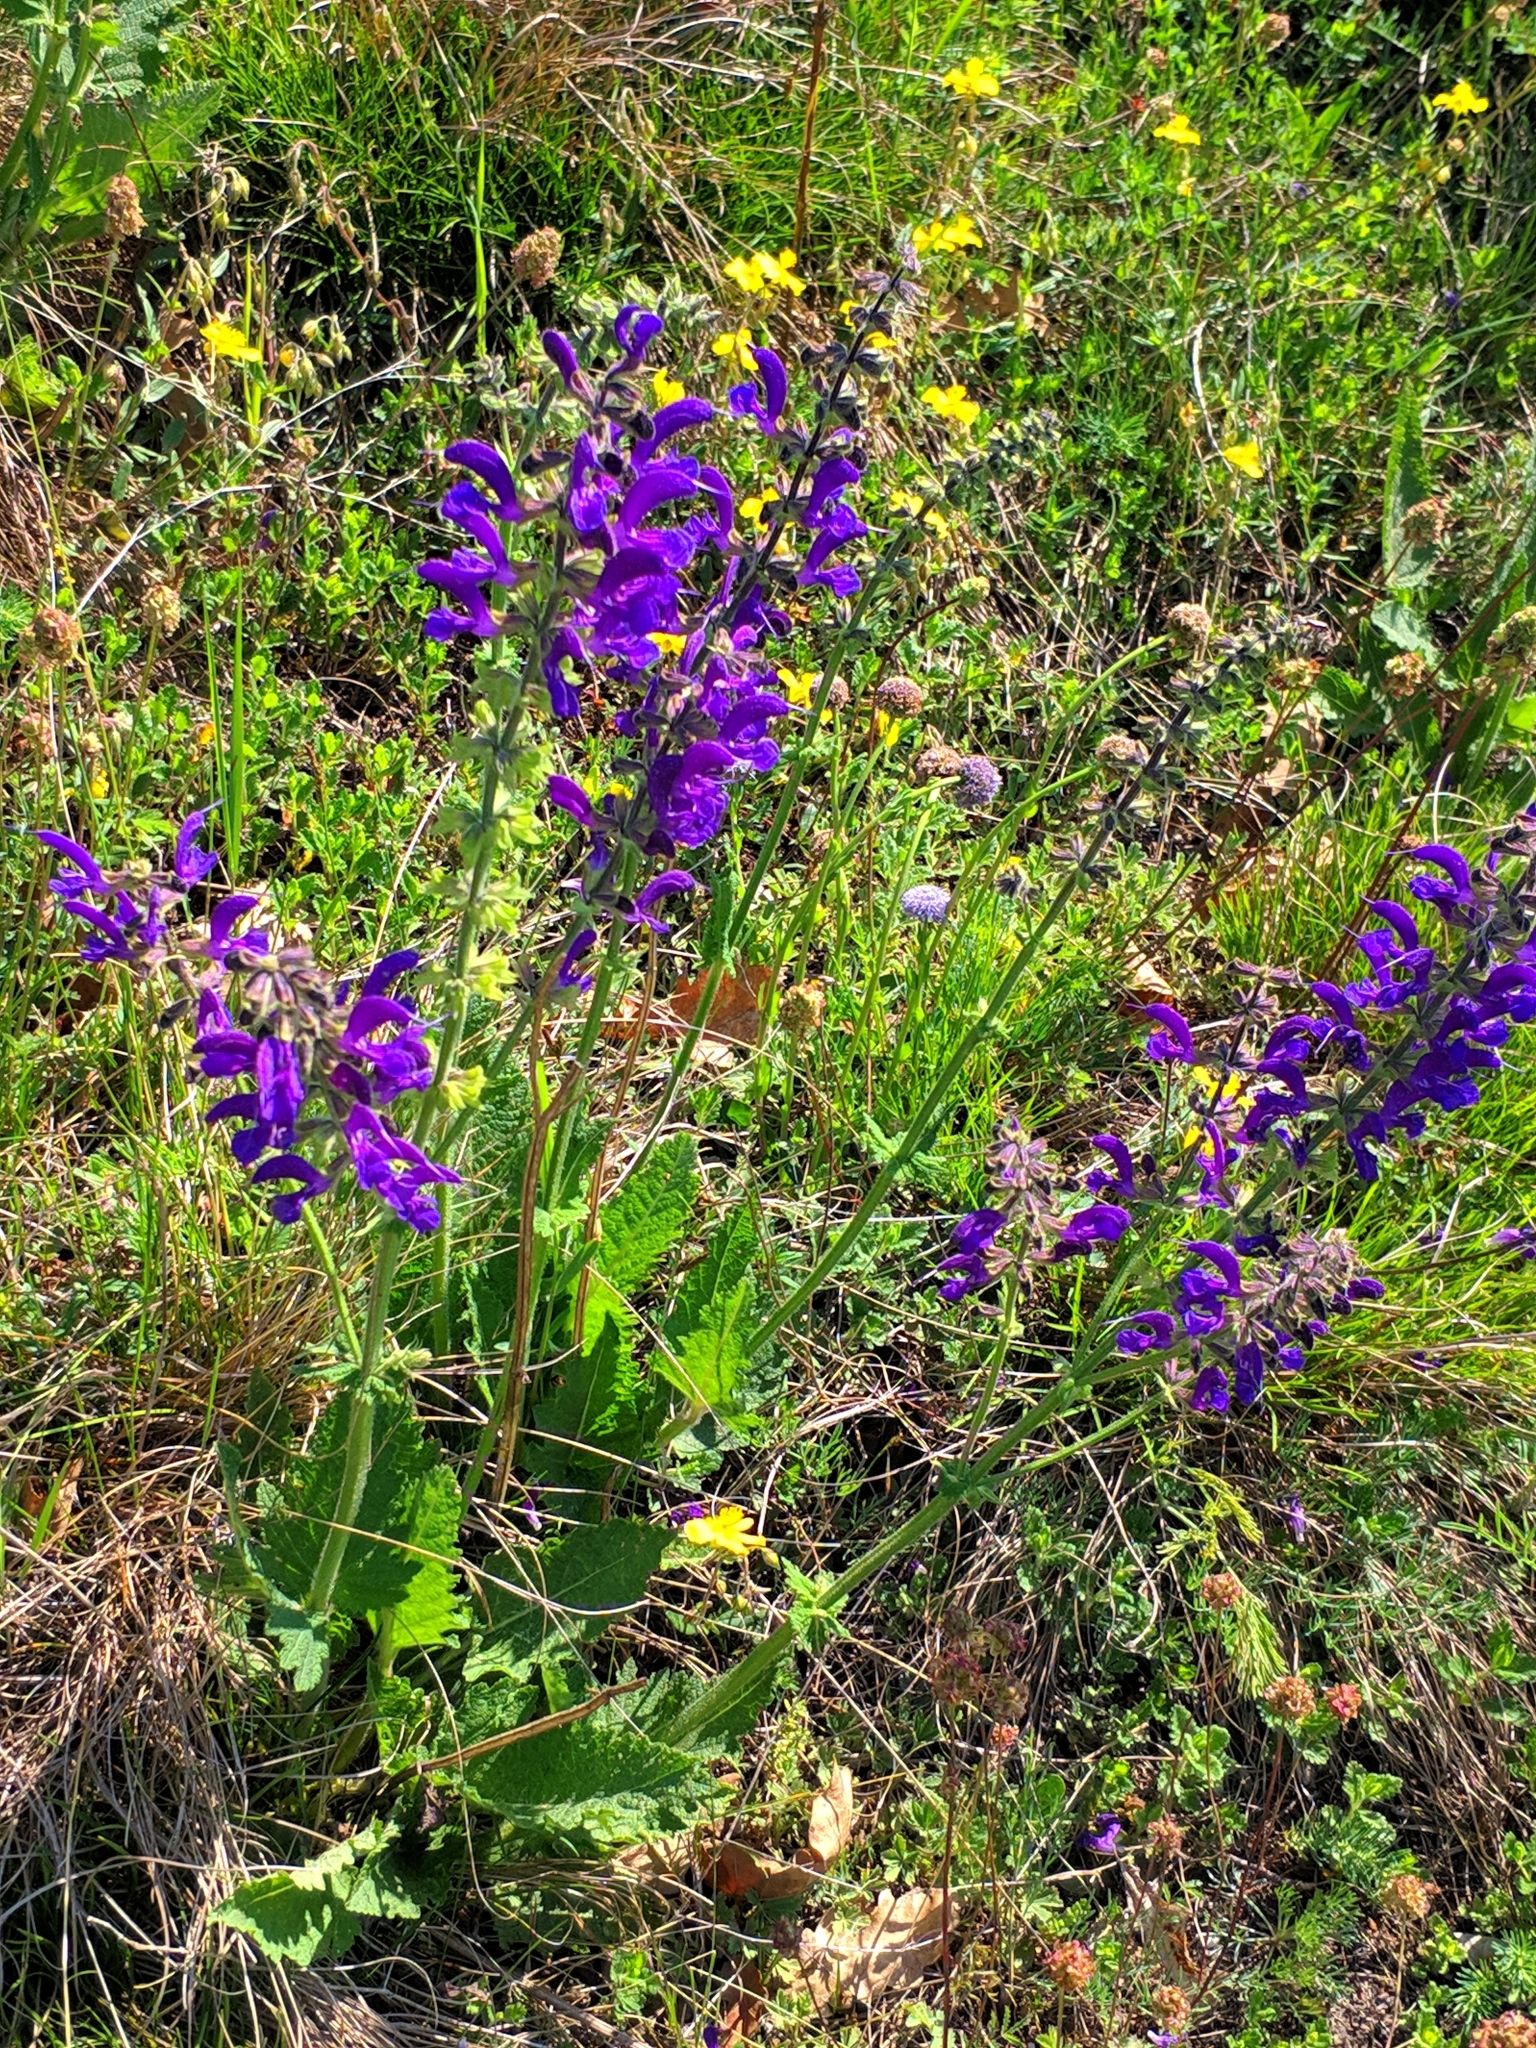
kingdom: Plantae
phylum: Tracheophyta
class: Magnoliopsida
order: Lamiales
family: Lamiaceae
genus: Salvia
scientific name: Salvia pratensis
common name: Meadow sage
